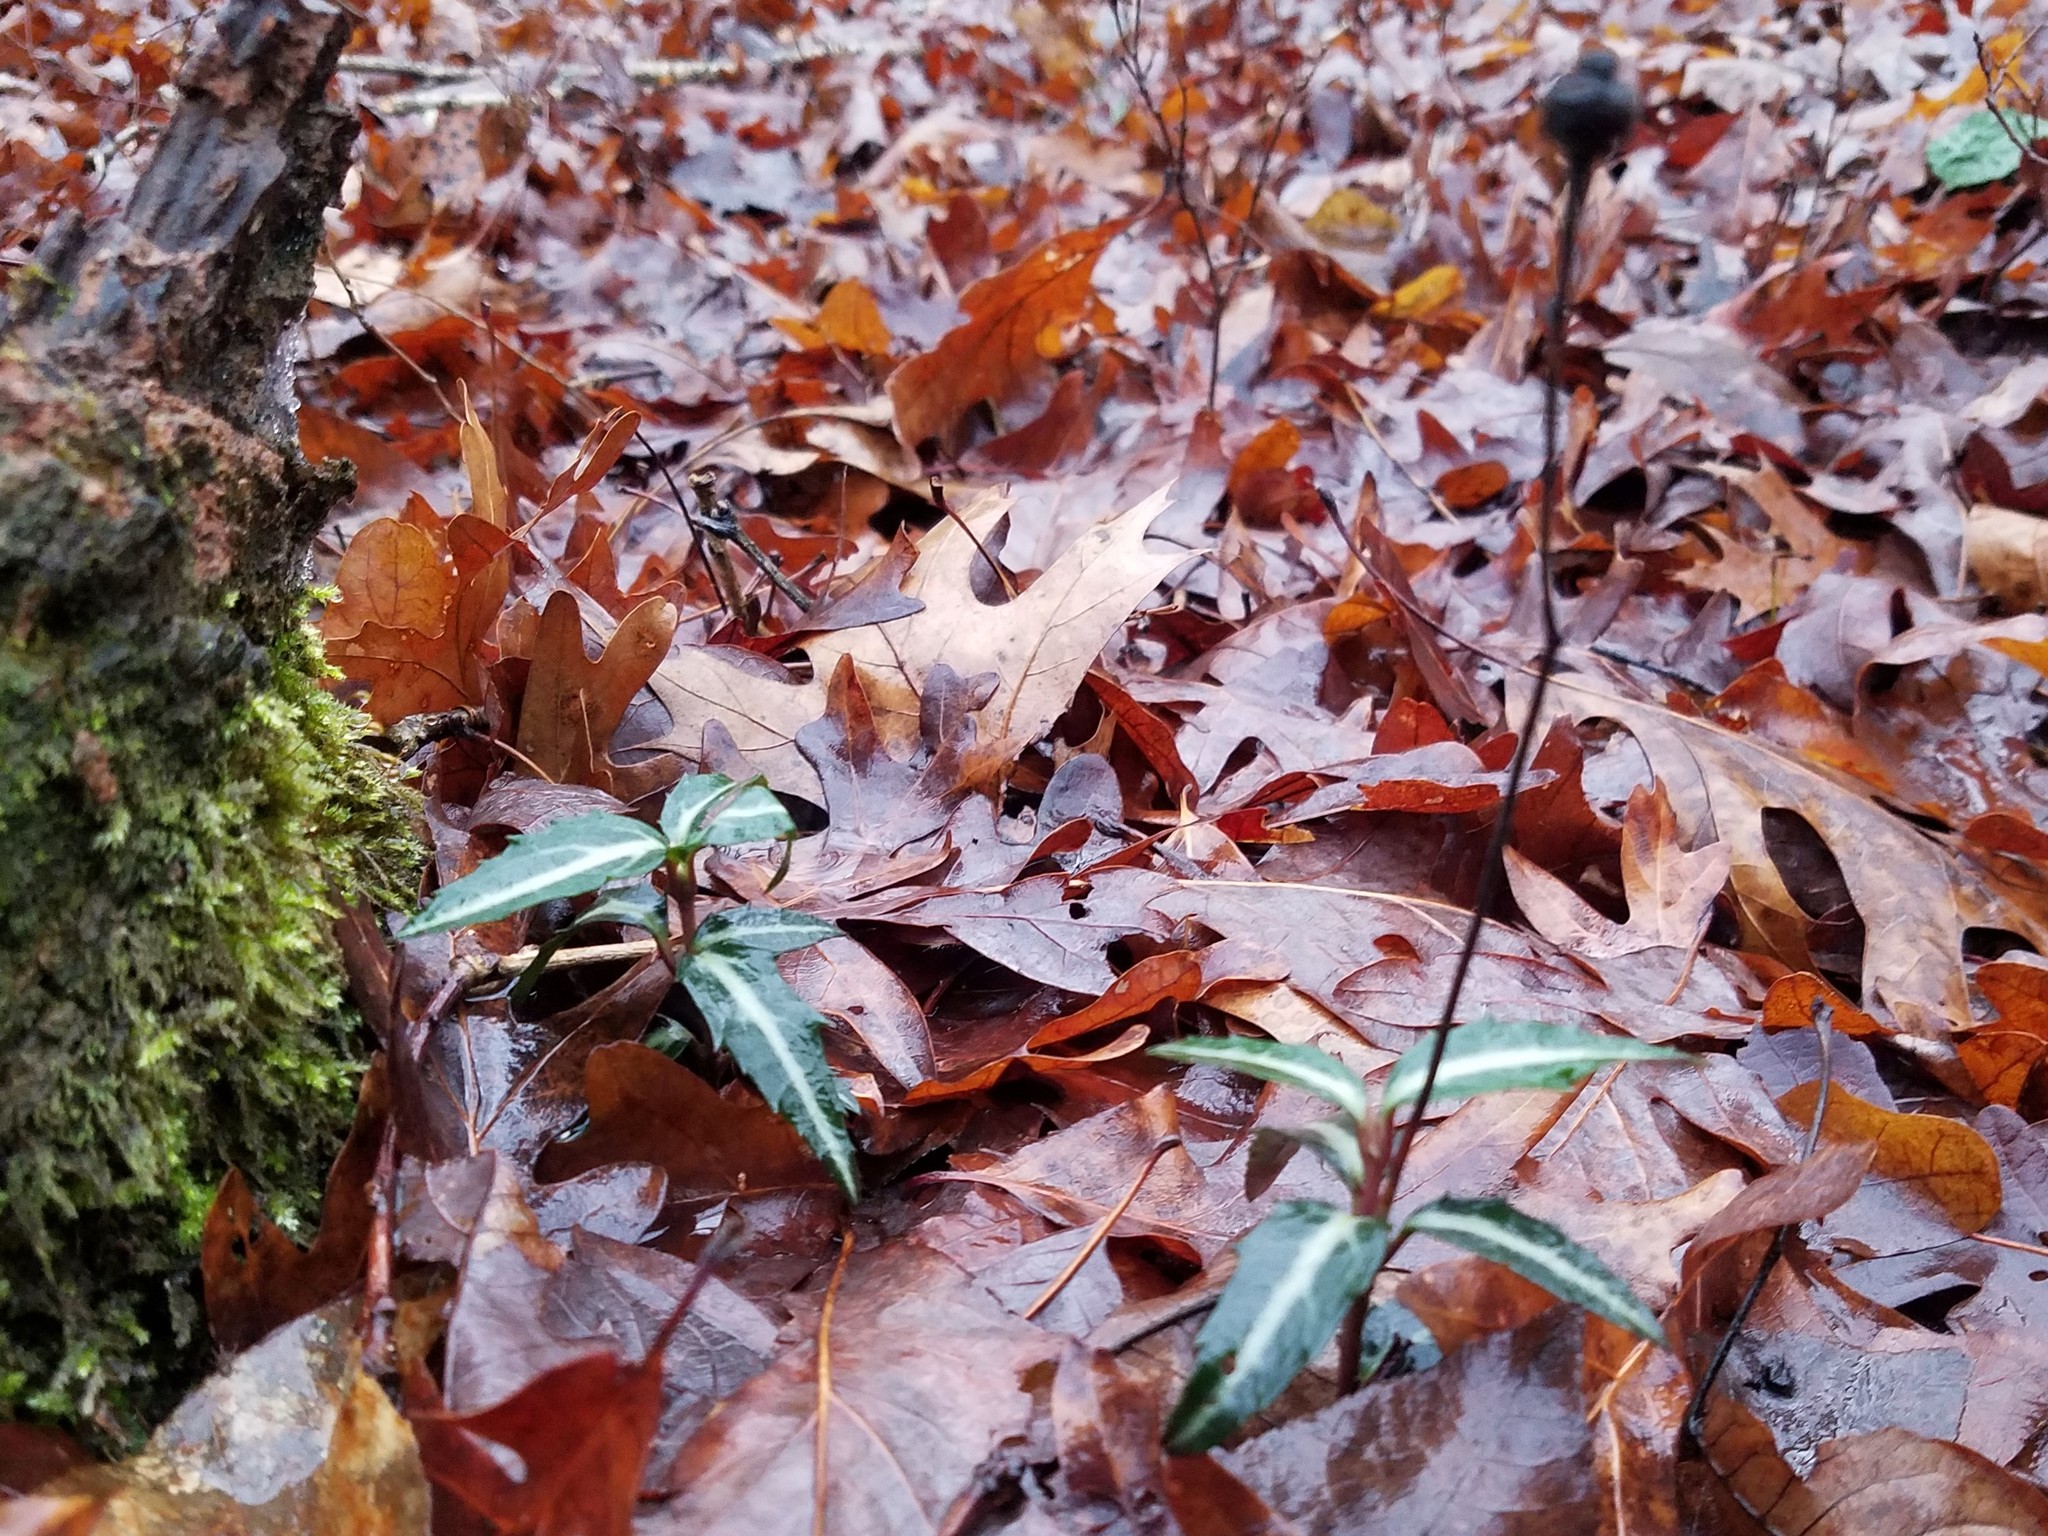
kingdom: Plantae
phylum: Tracheophyta
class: Magnoliopsida
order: Ericales
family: Ericaceae
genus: Chimaphila
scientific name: Chimaphila maculata
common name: Spotted pipsissewa
